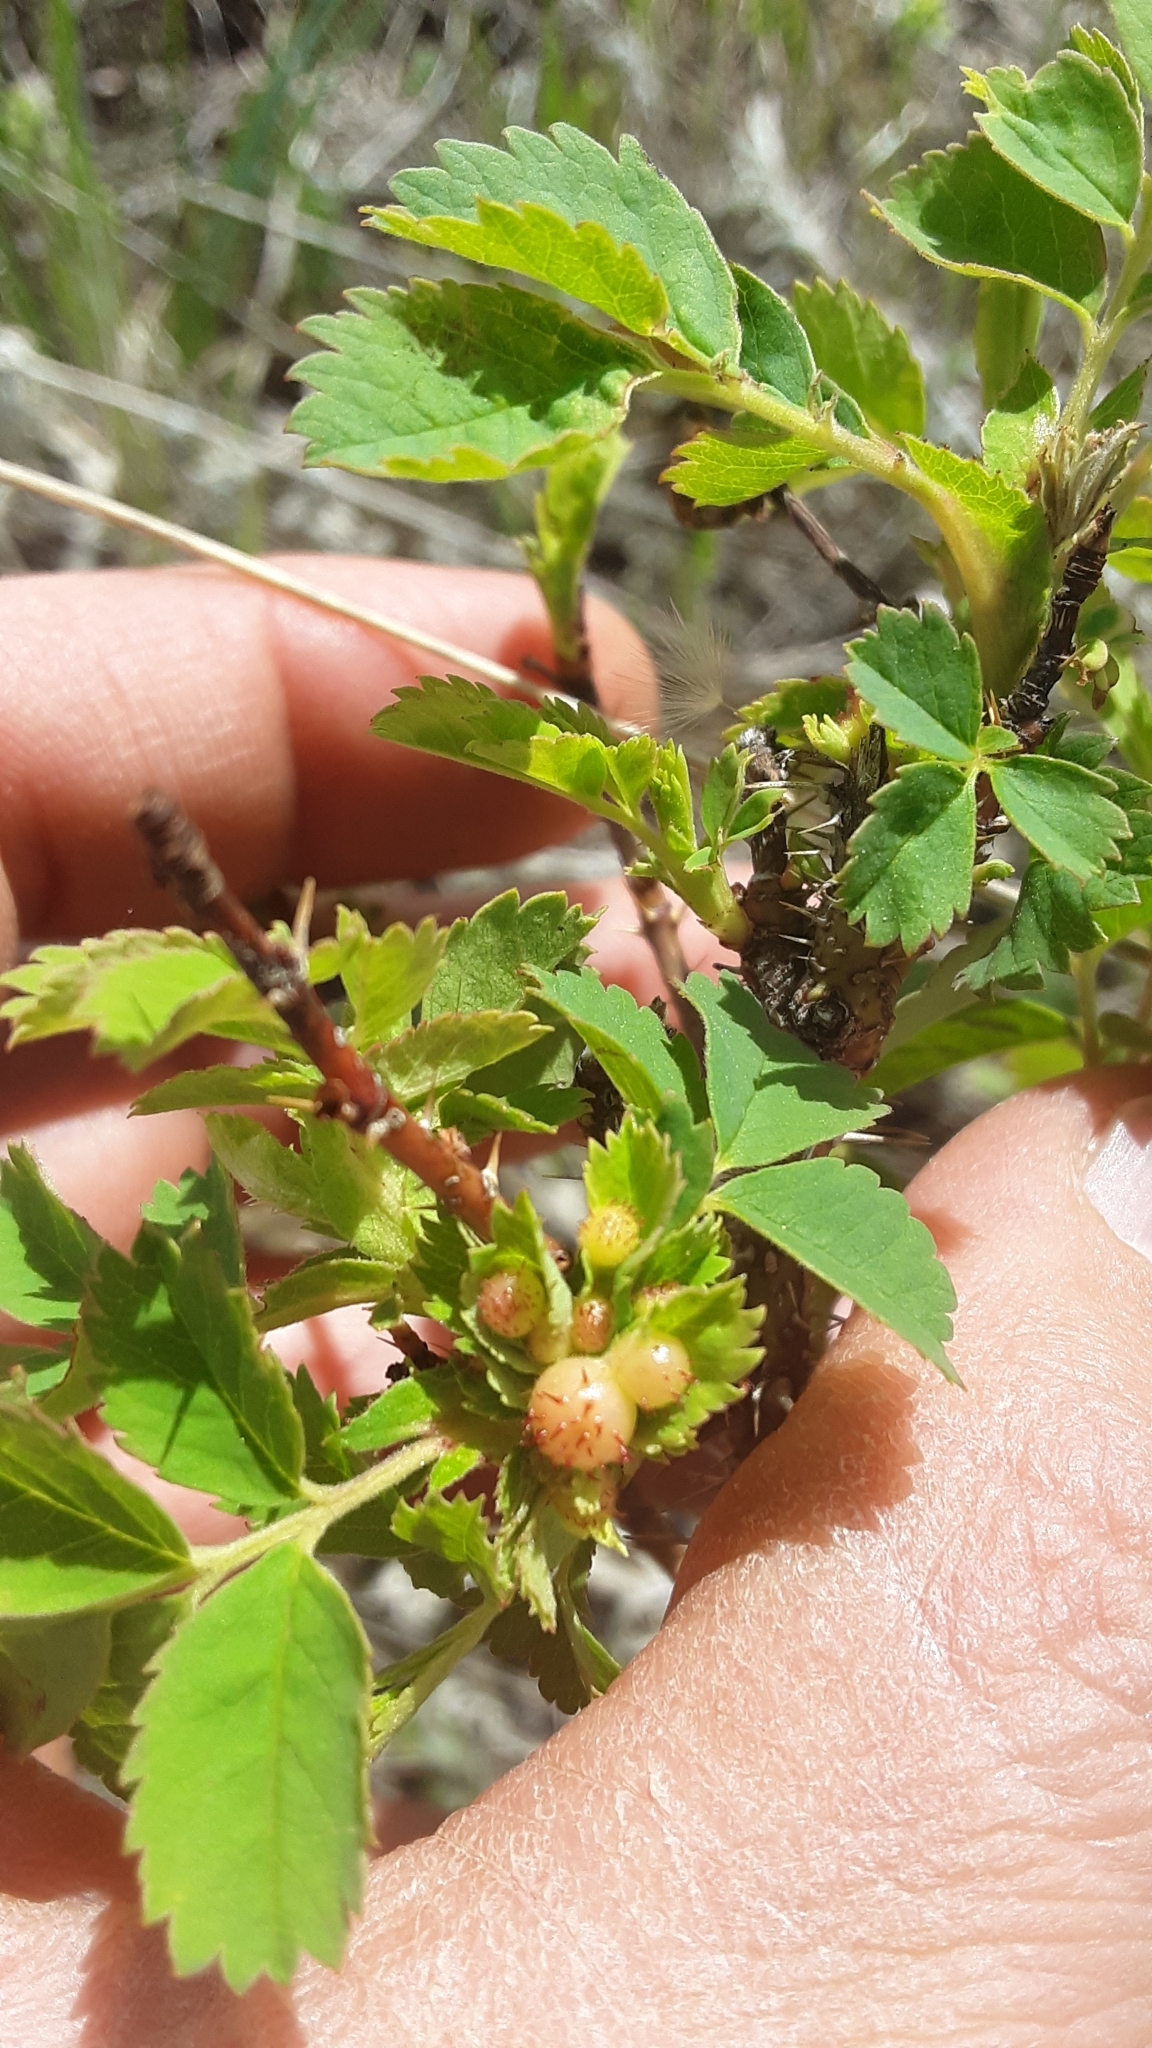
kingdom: Animalia
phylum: Arthropoda
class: Insecta
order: Hymenoptera
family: Cynipidae
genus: Diplolepis
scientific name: Diplolepis polita
